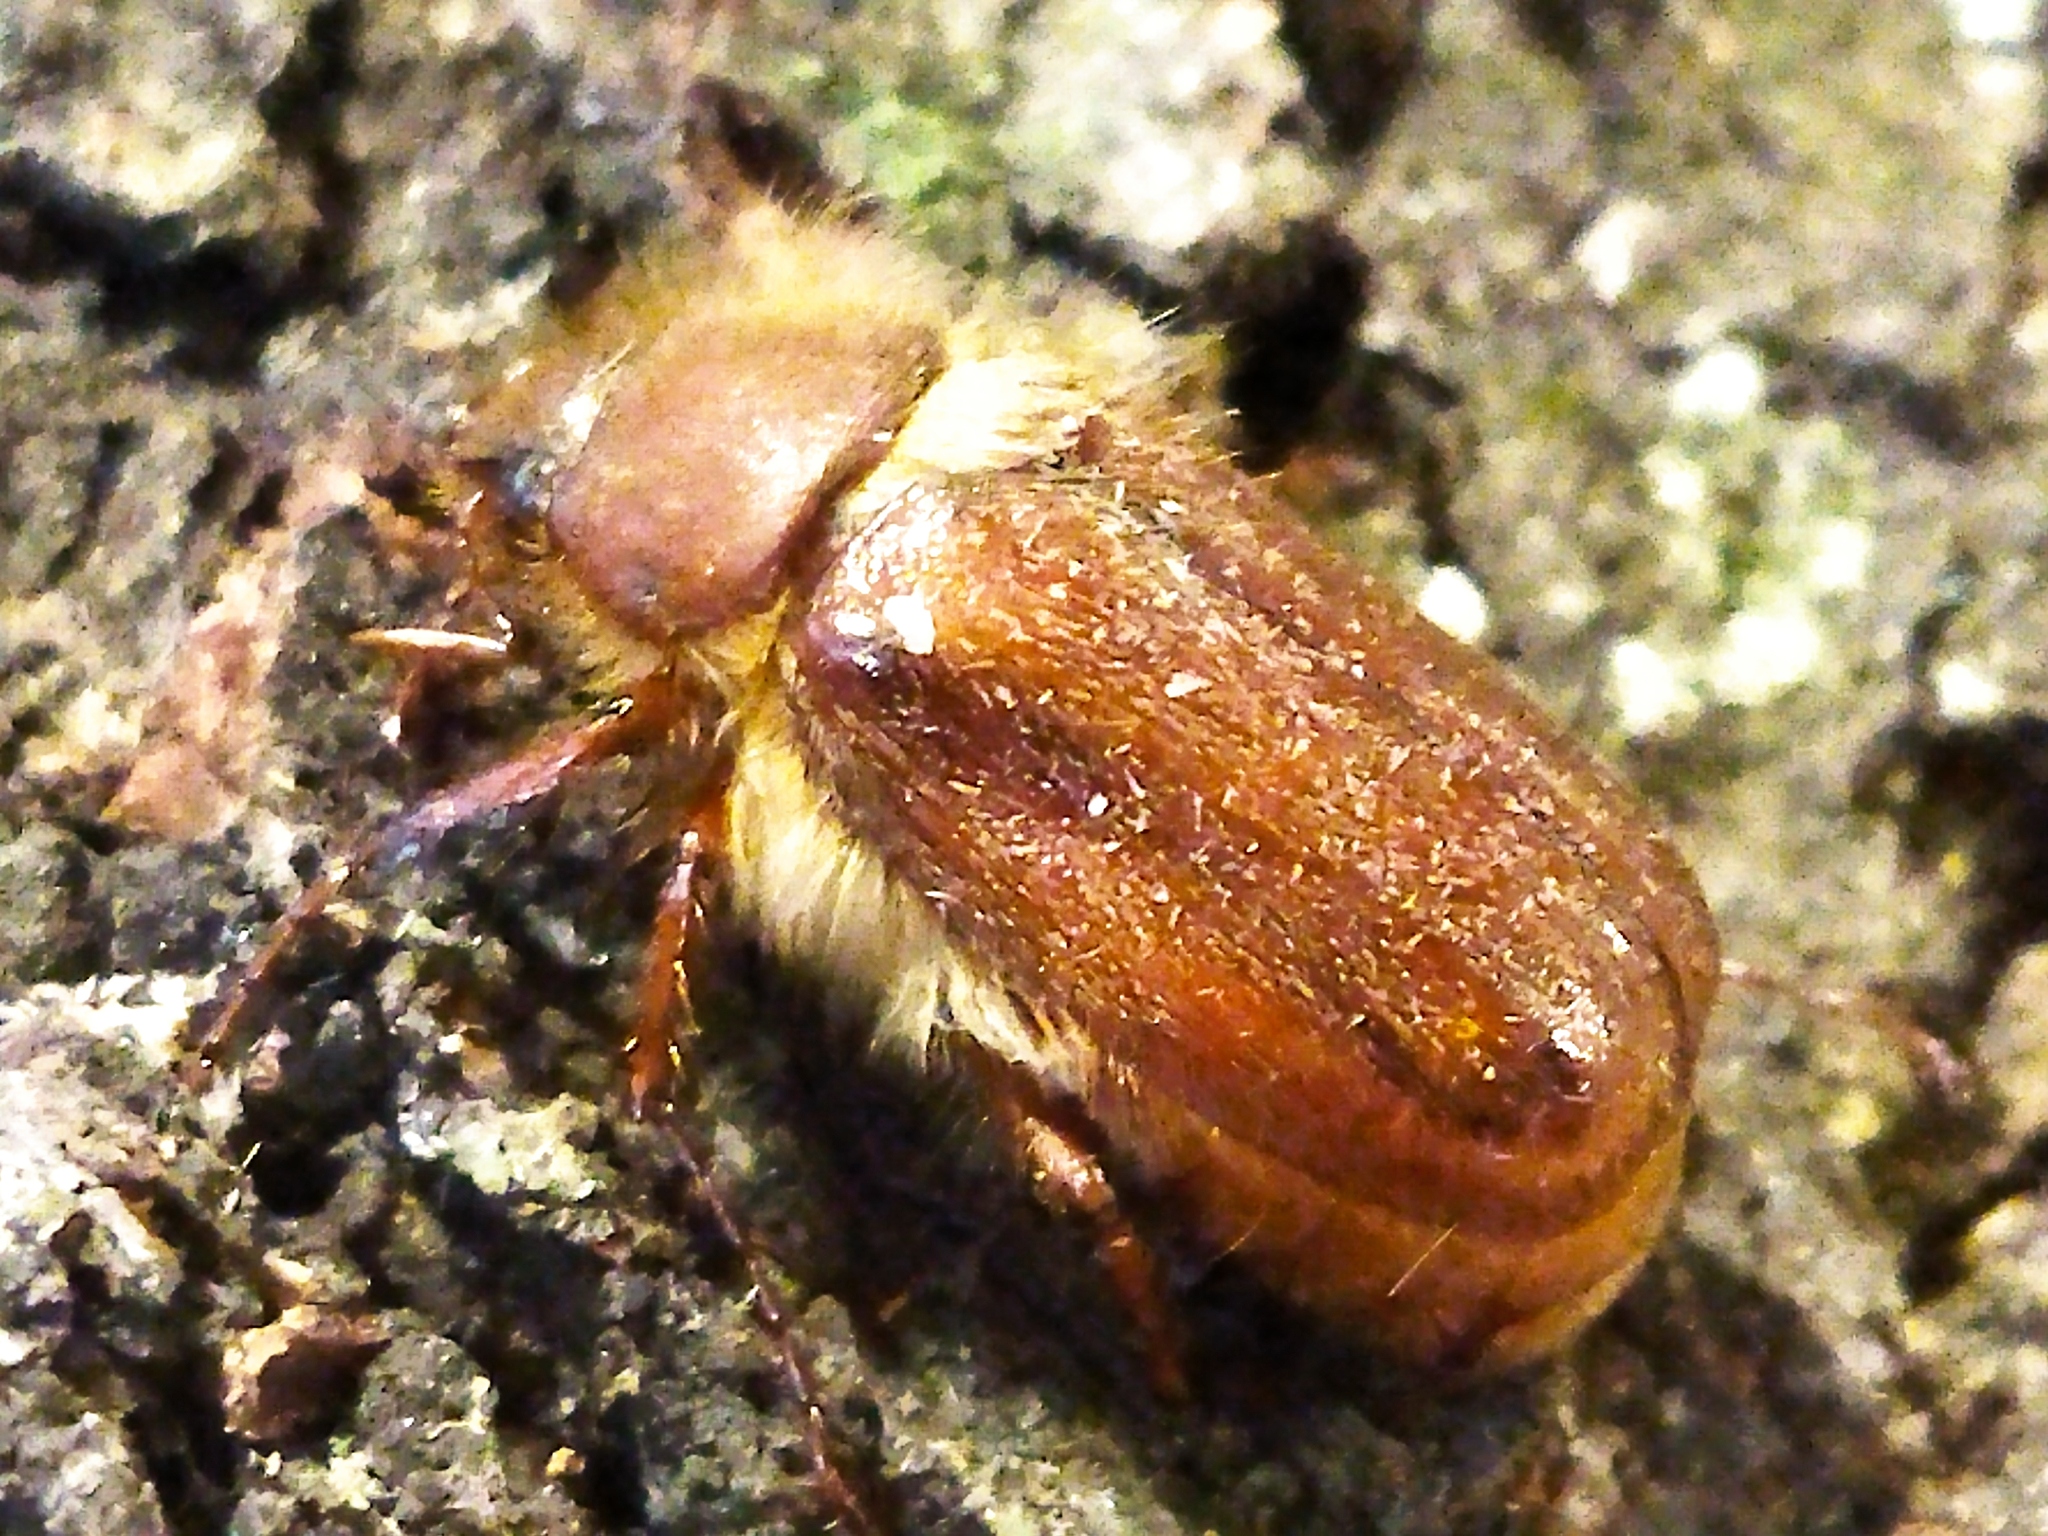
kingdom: Animalia
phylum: Arthropoda
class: Insecta
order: Coleoptera
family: Scarabaeidae
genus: Holochelus
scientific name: Holochelus aequinoctialis
